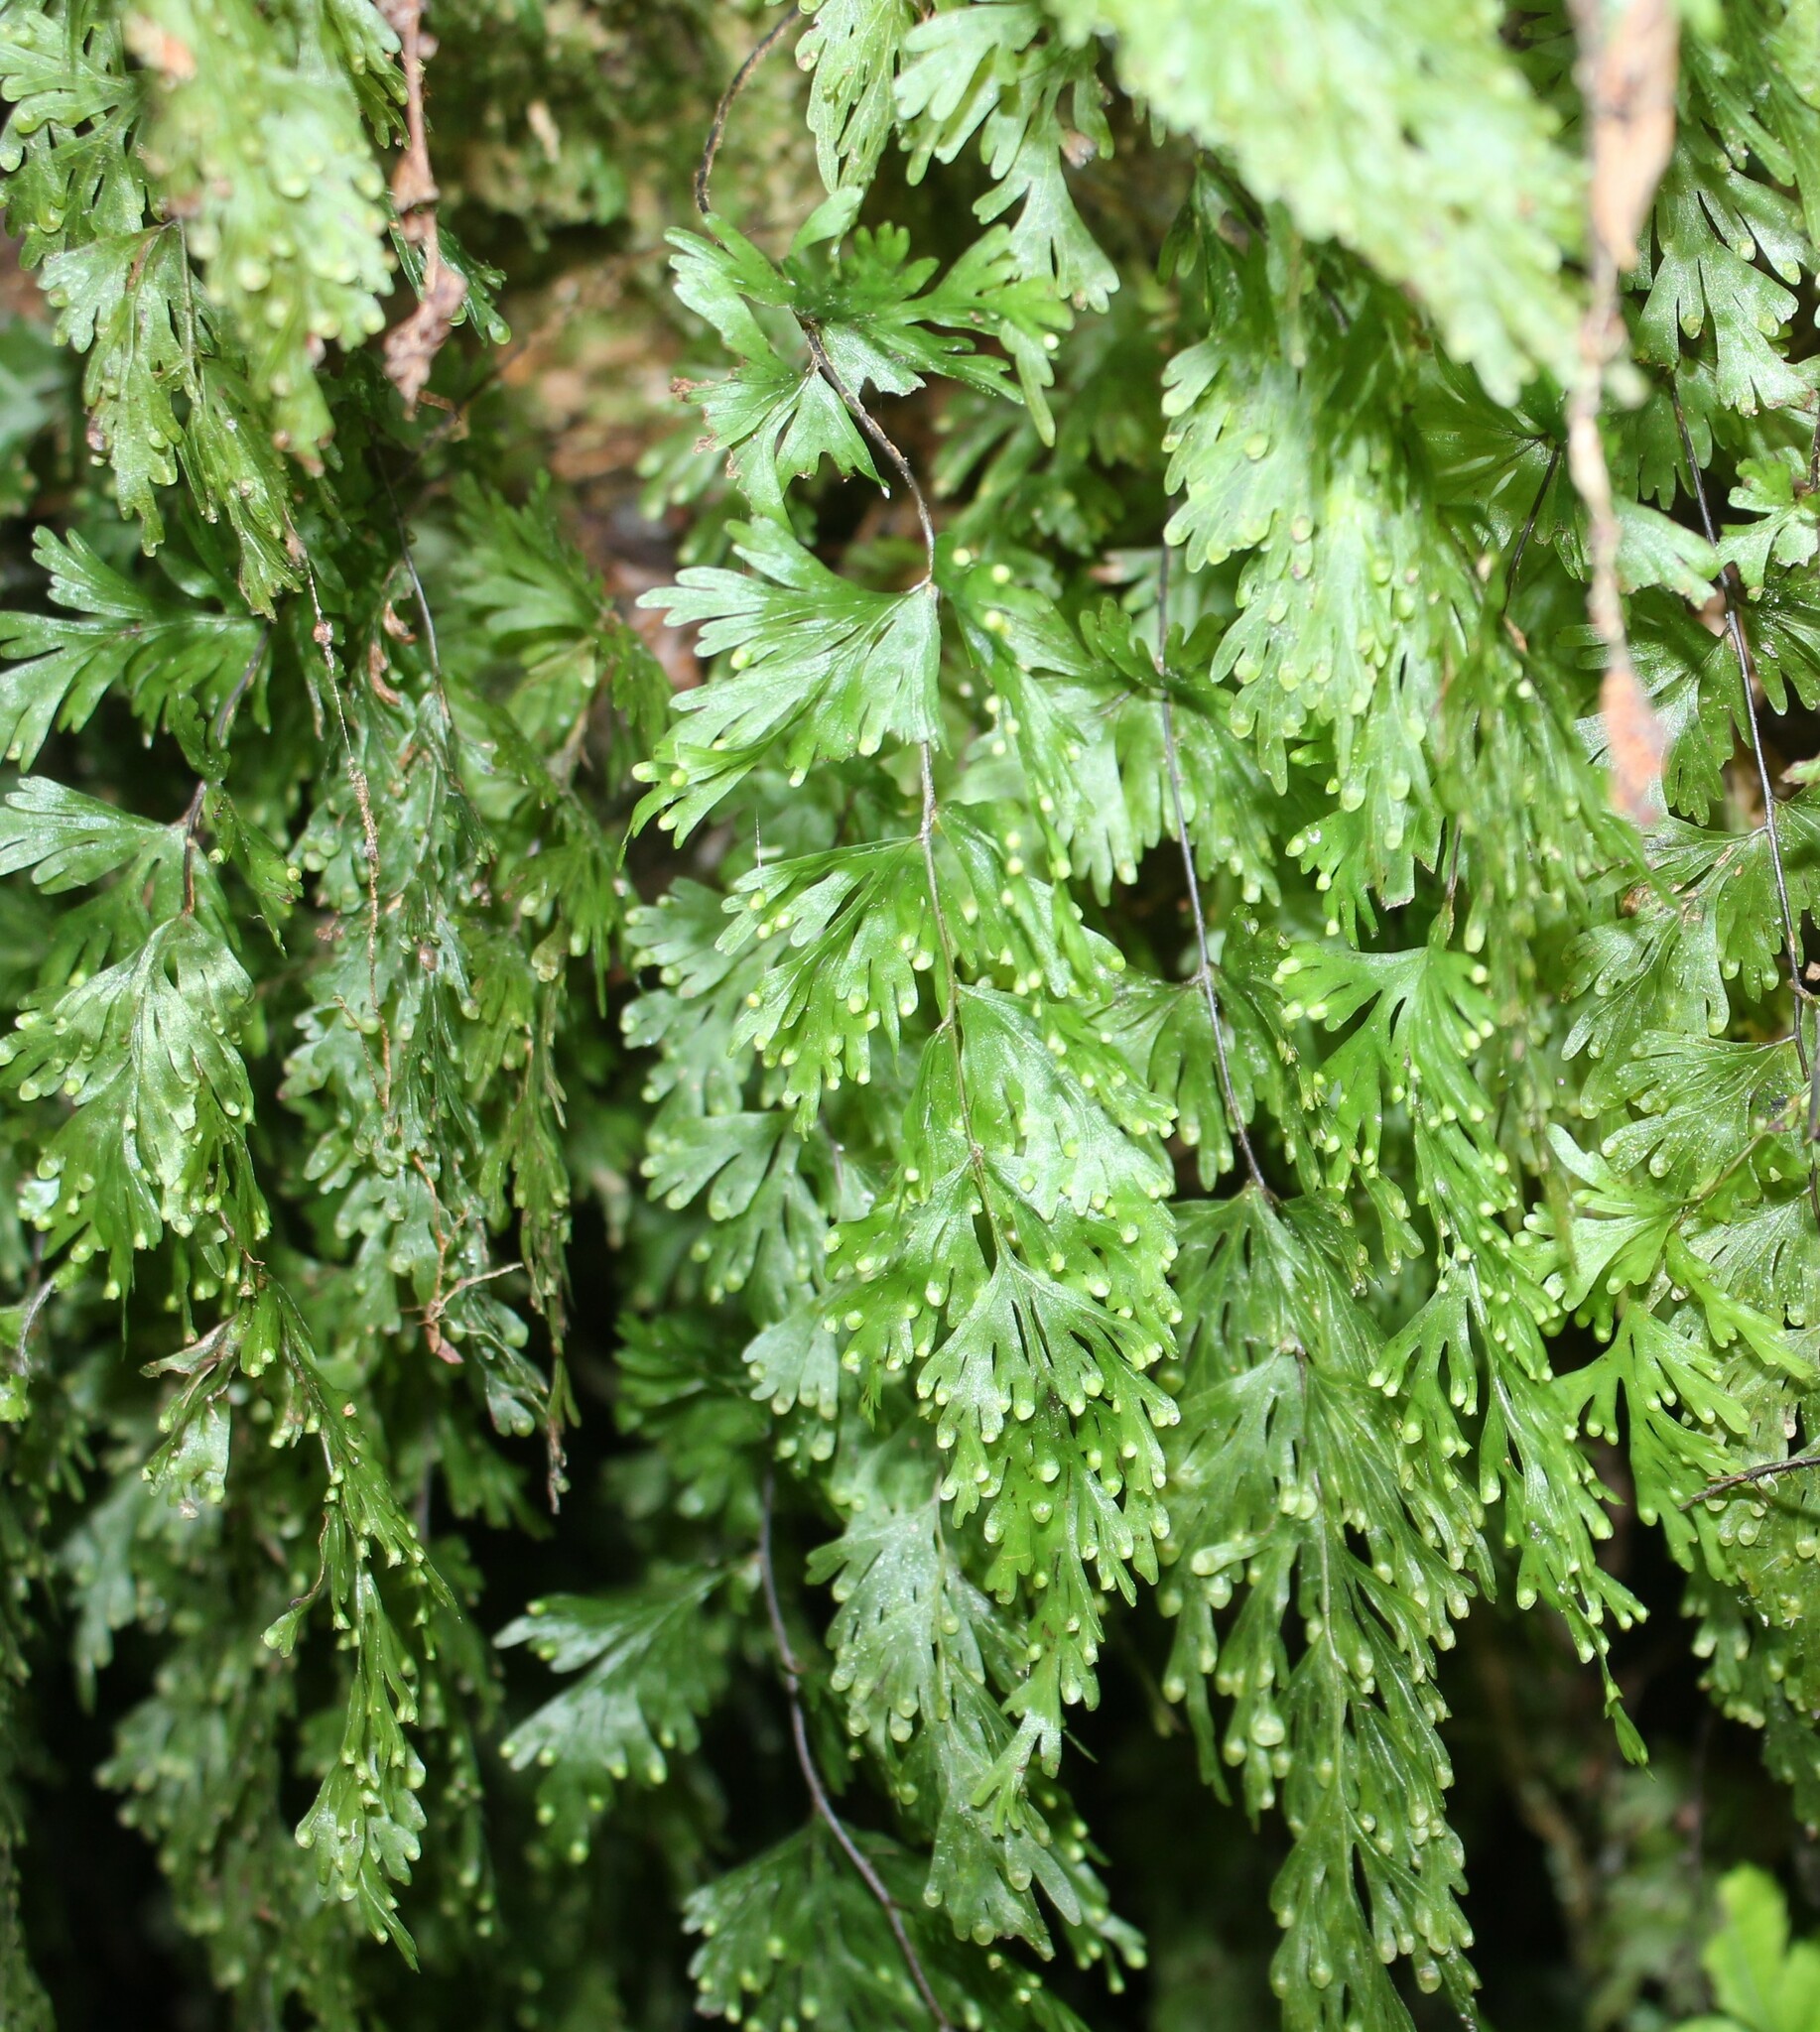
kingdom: Plantae
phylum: Tracheophyta
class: Polypodiopsida
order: Hymenophyllales
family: Hymenophyllaceae
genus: Hymenophyllum
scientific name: Hymenophyllum flabellatum
